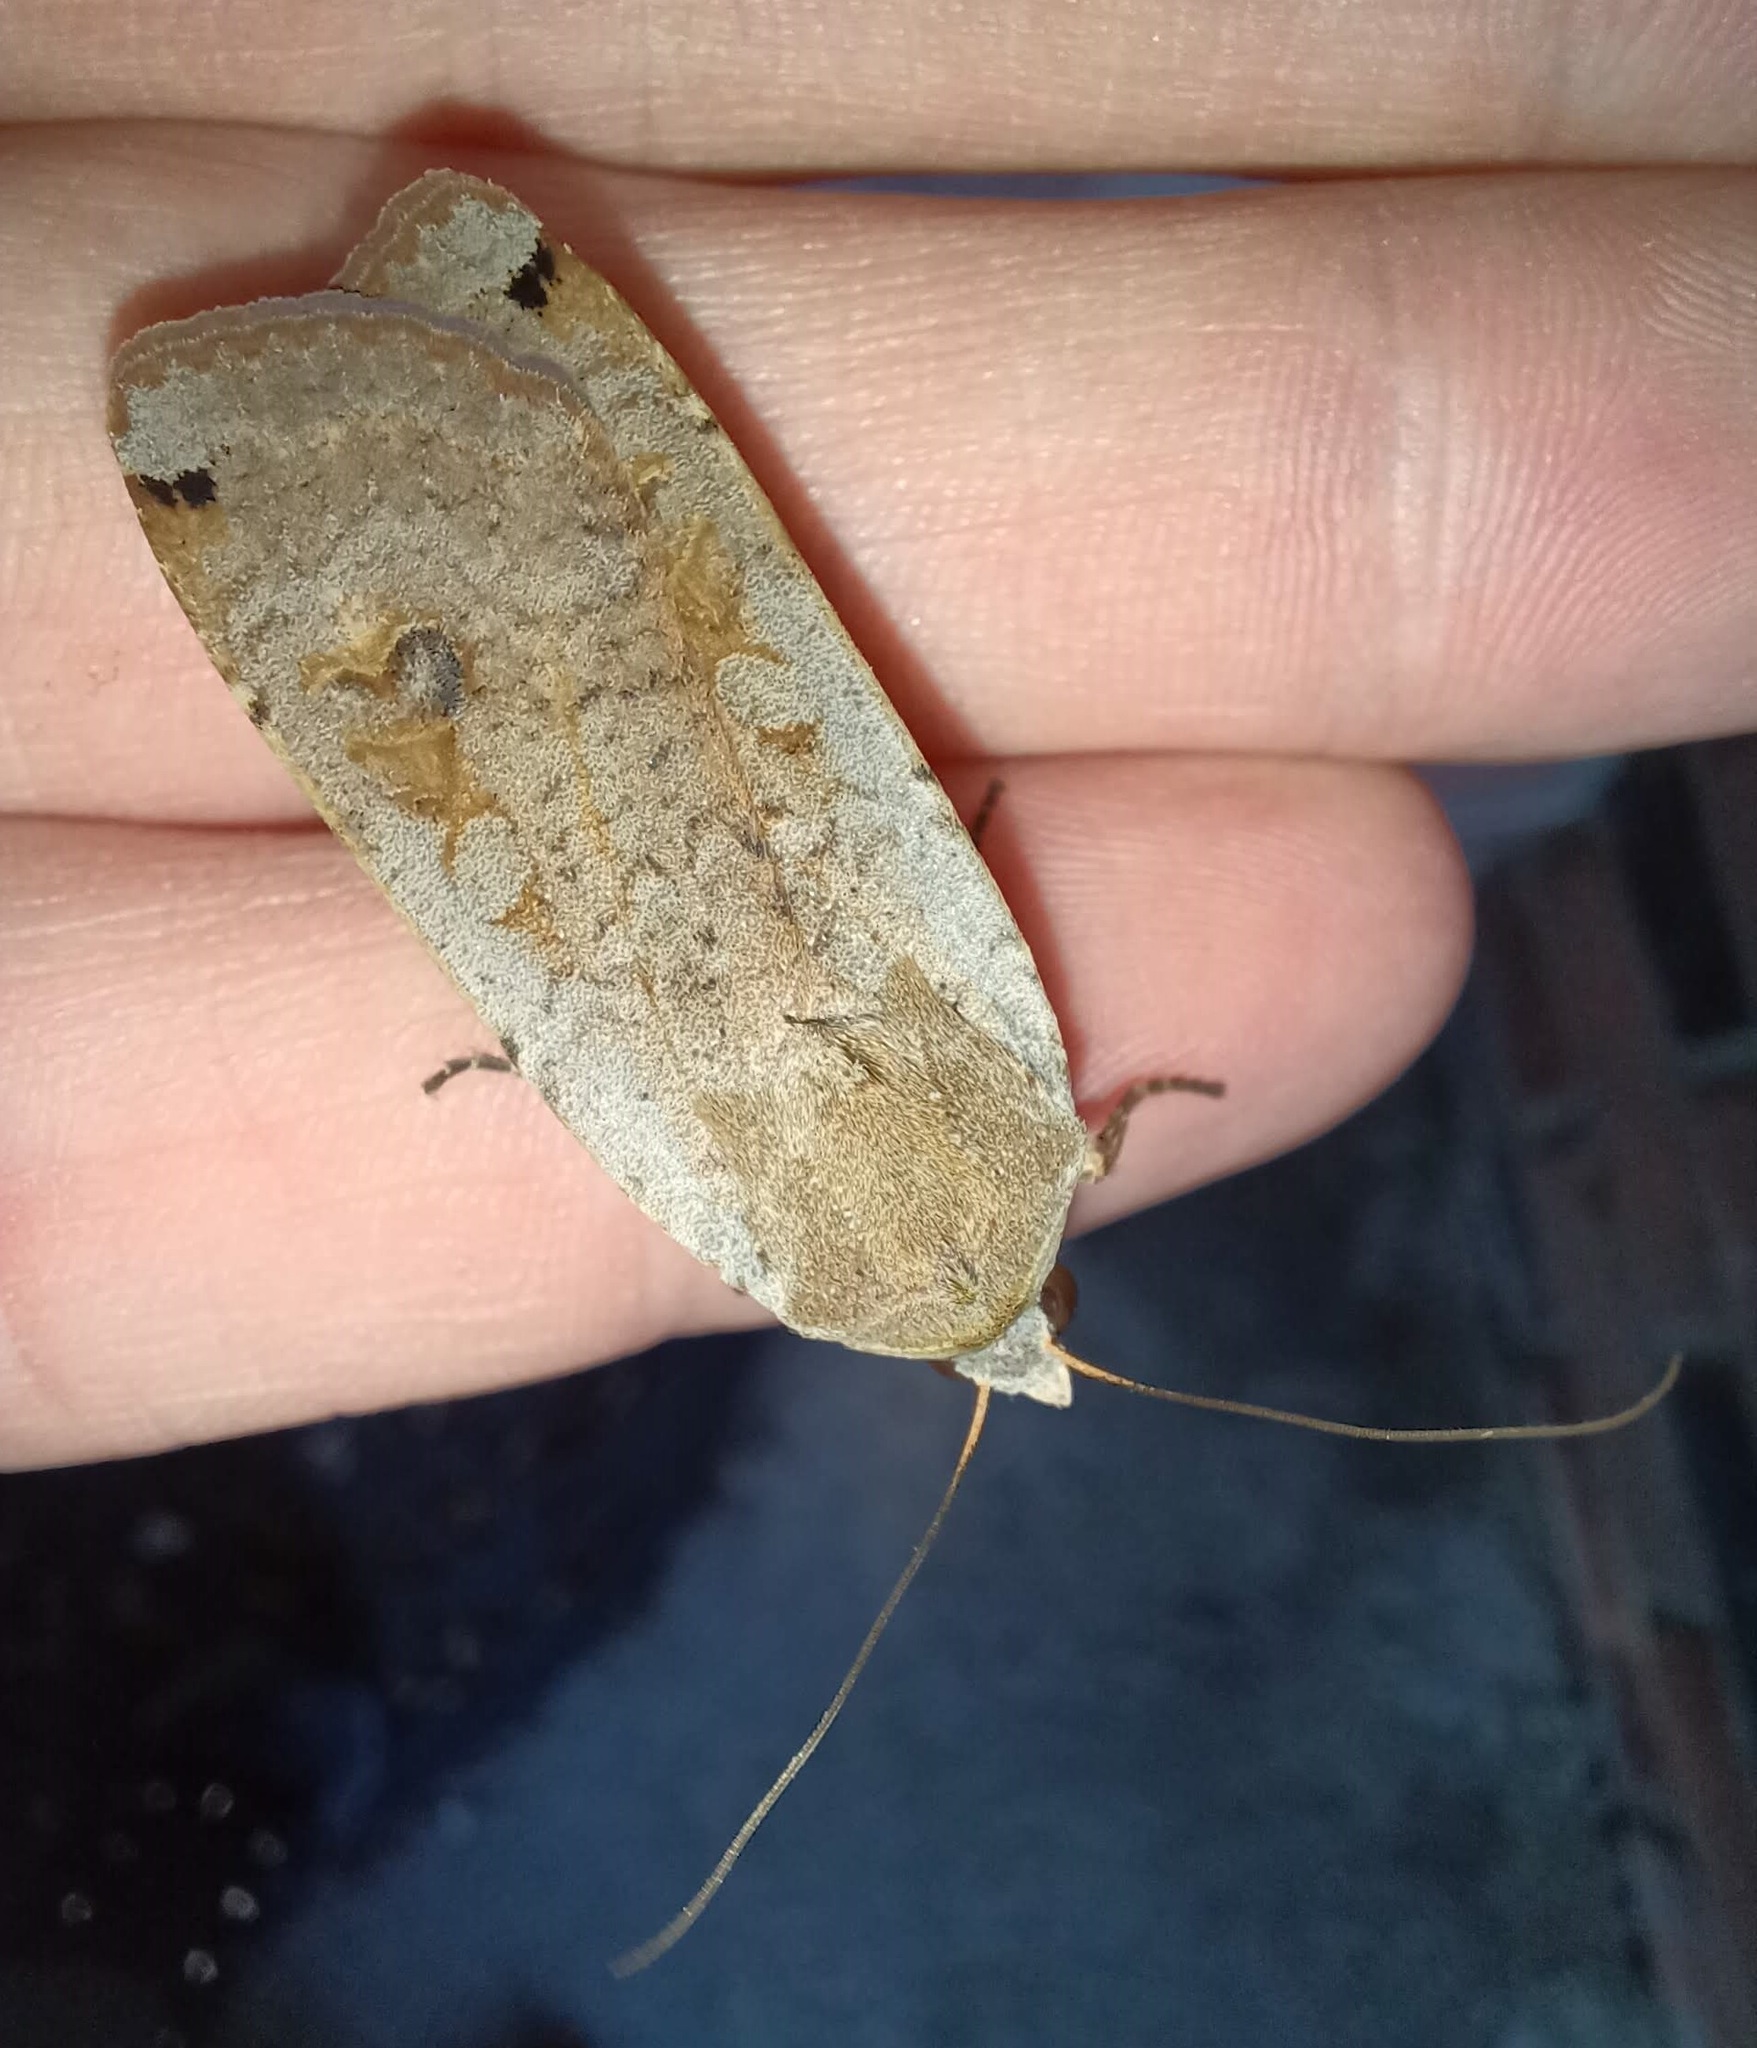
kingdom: Animalia
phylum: Arthropoda
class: Insecta
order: Lepidoptera
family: Noctuidae
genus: Noctua
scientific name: Noctua pronuba
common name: Large yellow underwing
